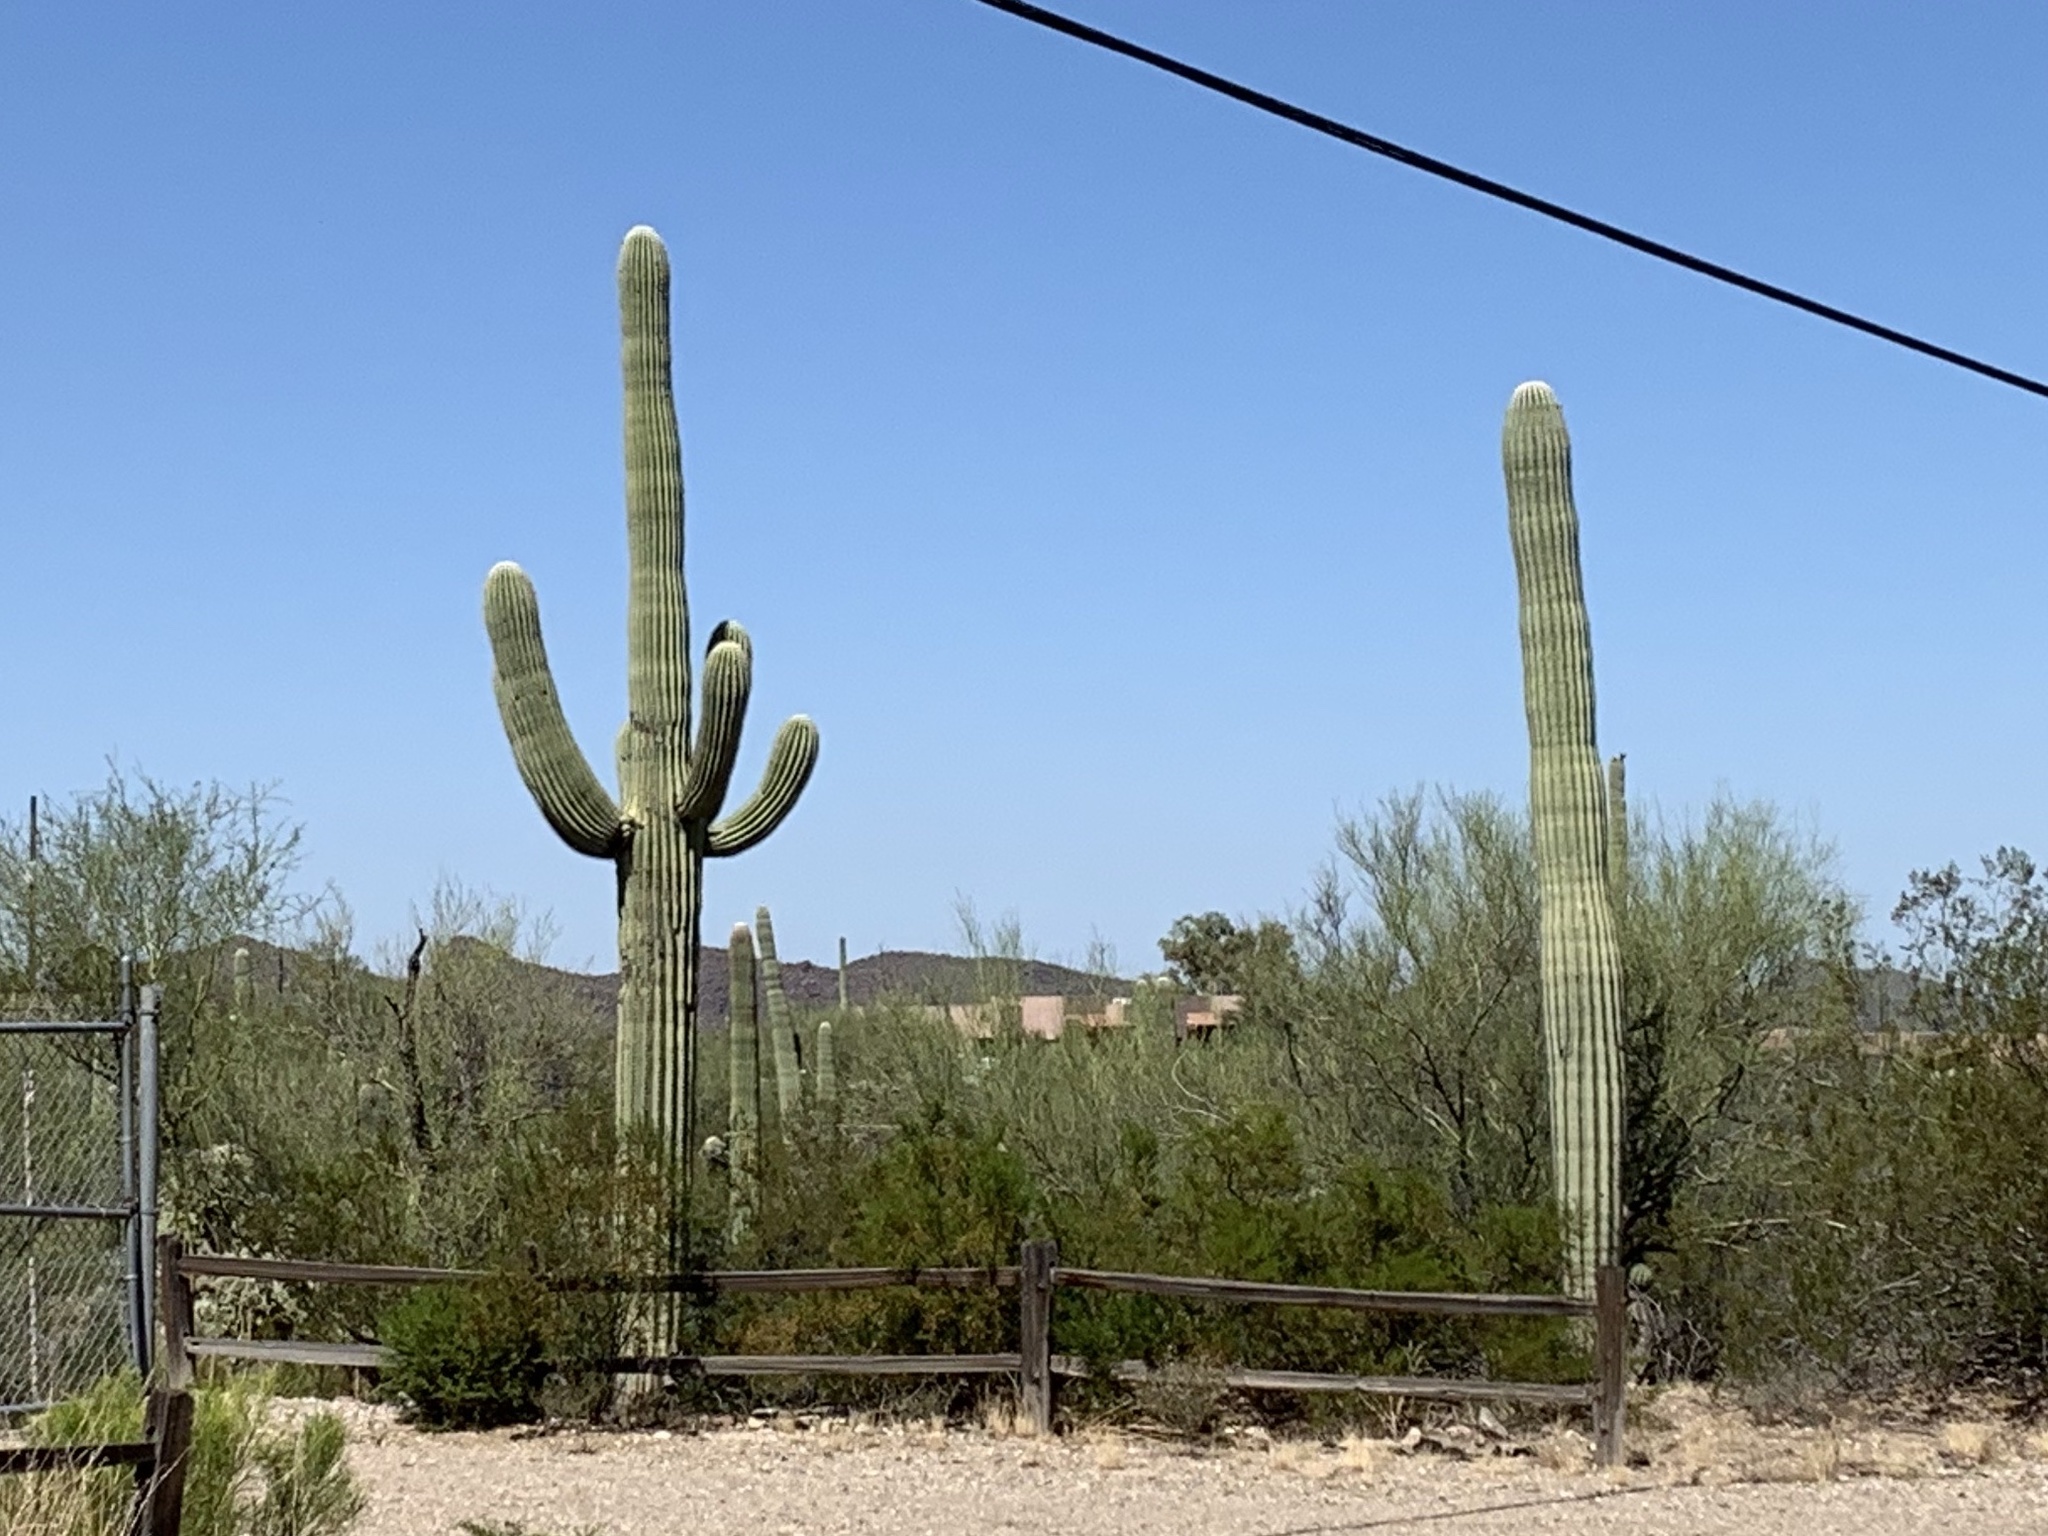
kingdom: Plantae
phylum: Tracheophyta
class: Magnoliopsida
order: Caryophyllales
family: Cactaceae
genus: Carnegiea
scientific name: Carnegiea gigantea
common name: Saguaro
